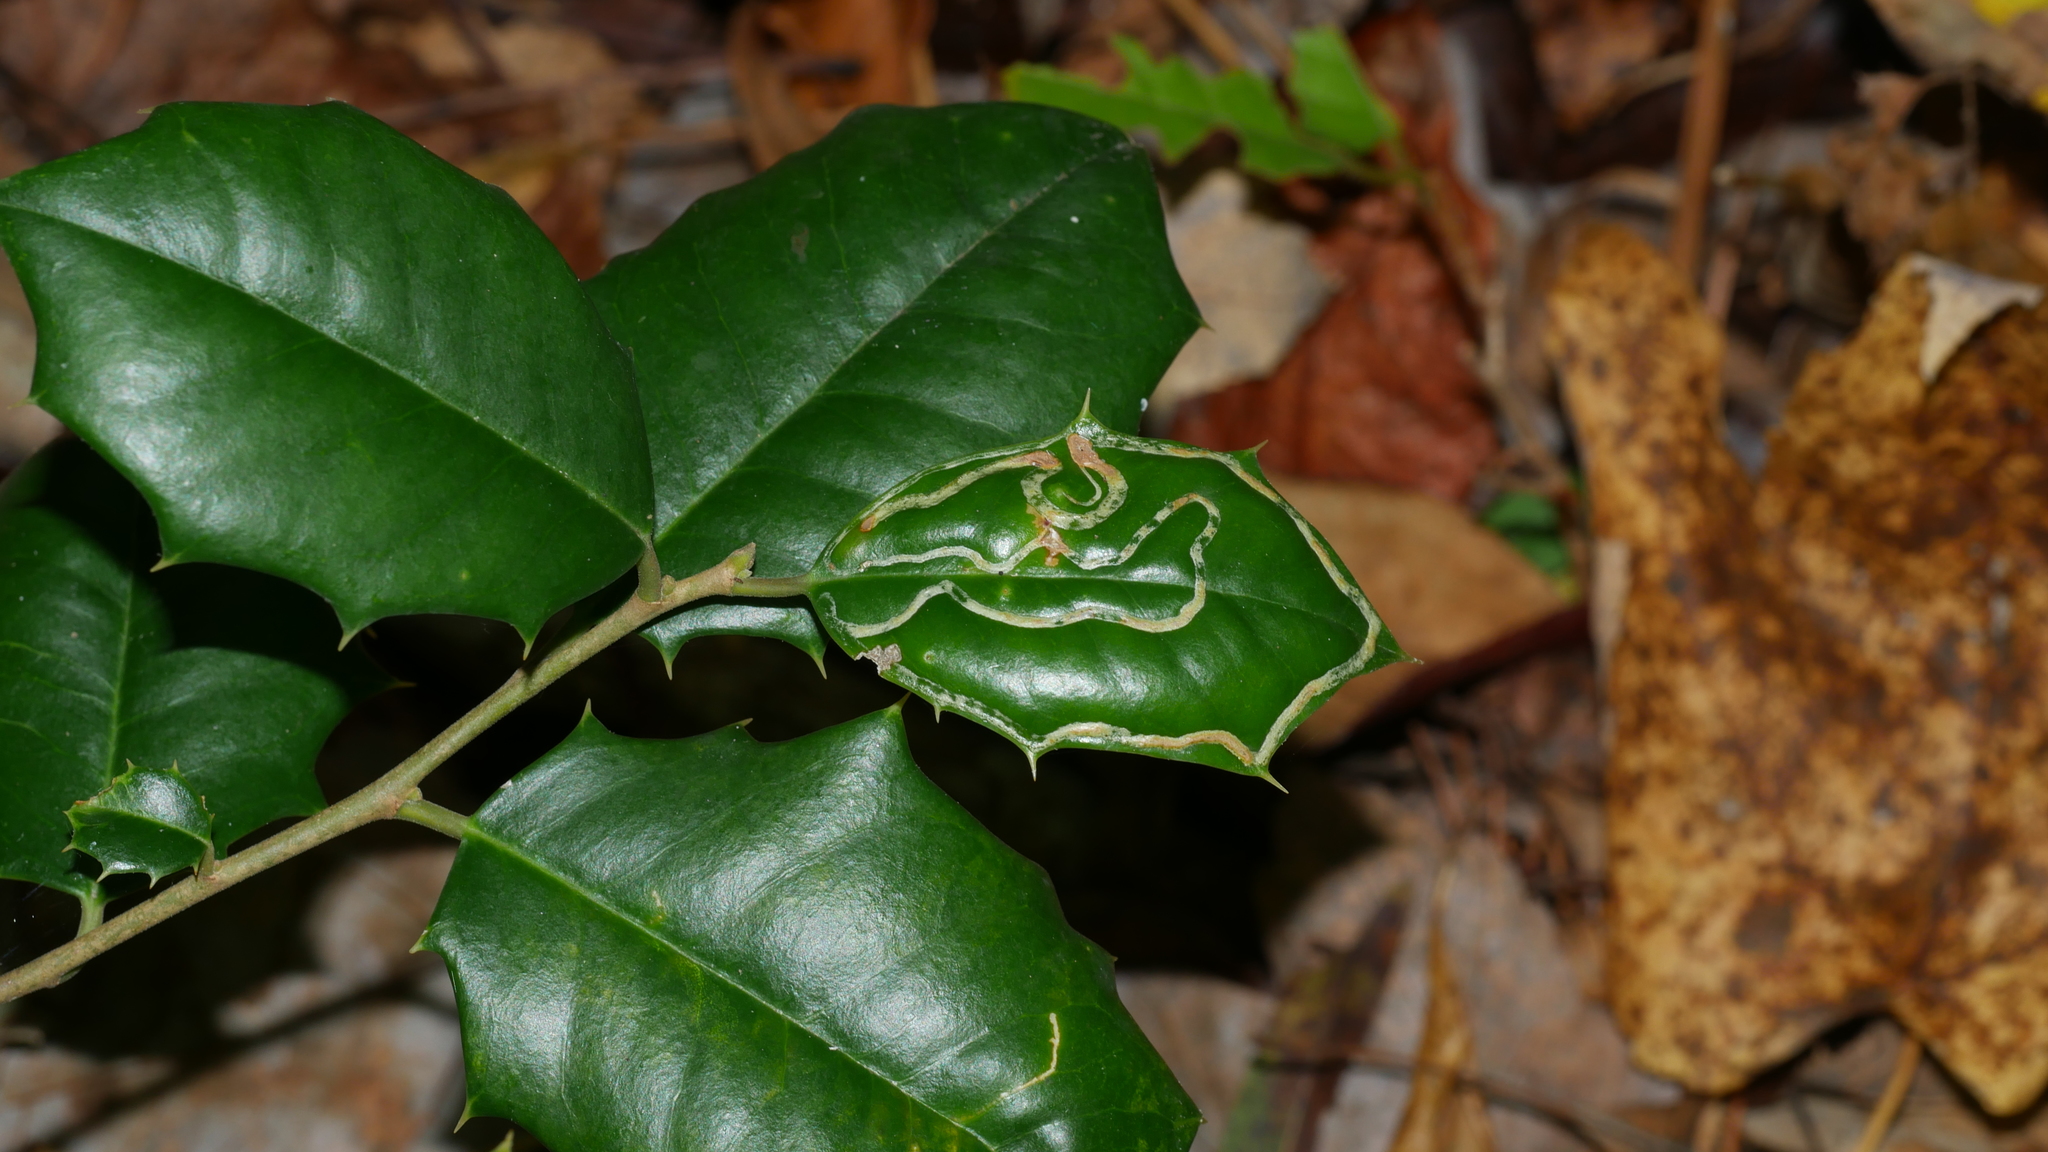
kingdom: Animalia
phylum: Arthropoda
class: Insecta
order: Diptera
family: Agromyzidae
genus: Phytomyza
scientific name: Phytomyza opacae
